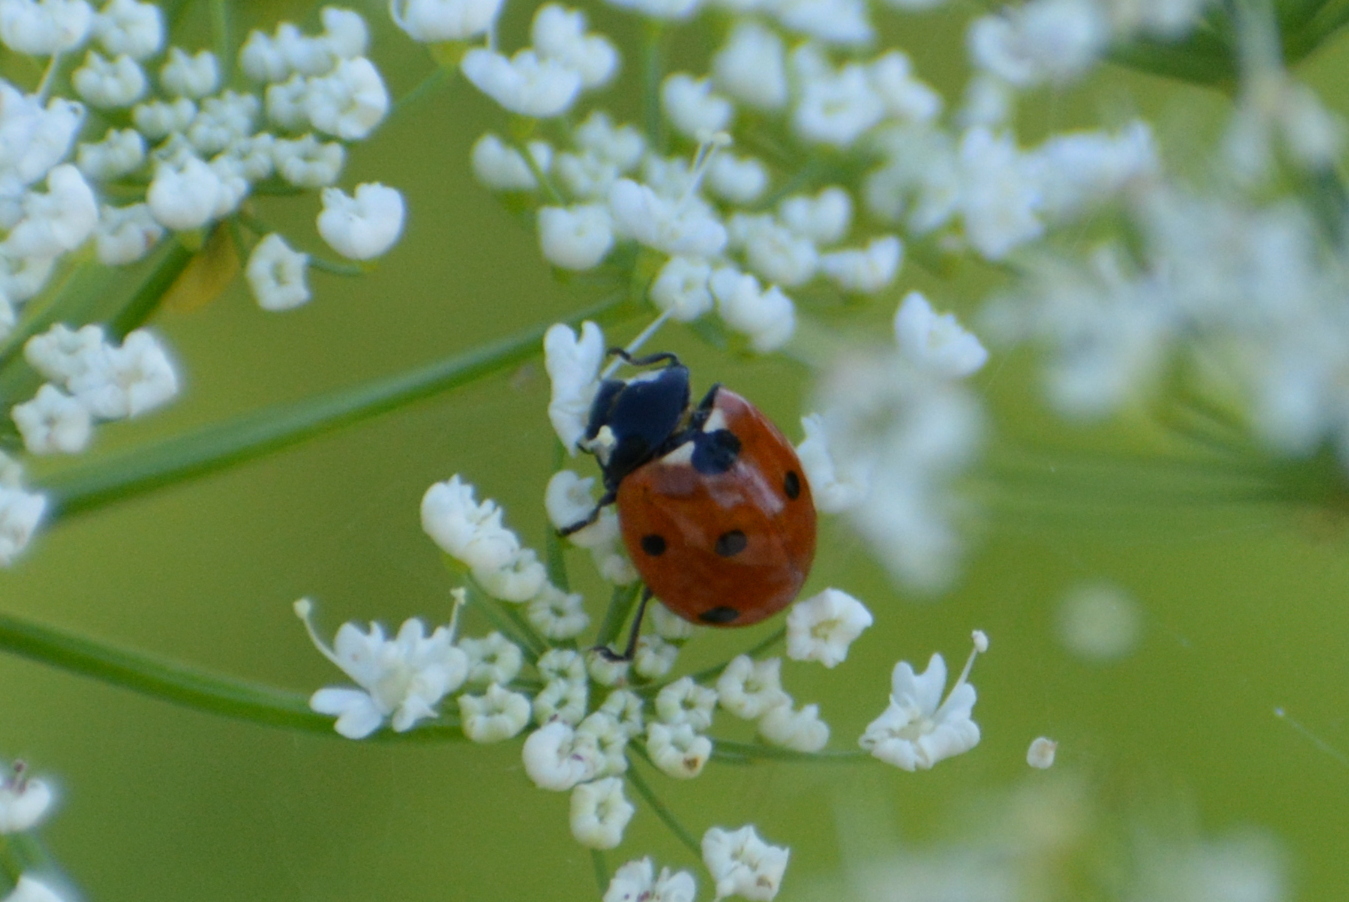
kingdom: Animalia
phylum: Arthropoda
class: Insecta
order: Coleoptera
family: Coccinellidae
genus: Coccinella
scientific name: Coccinella septempunctata
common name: Sevenspotted lady beetle
